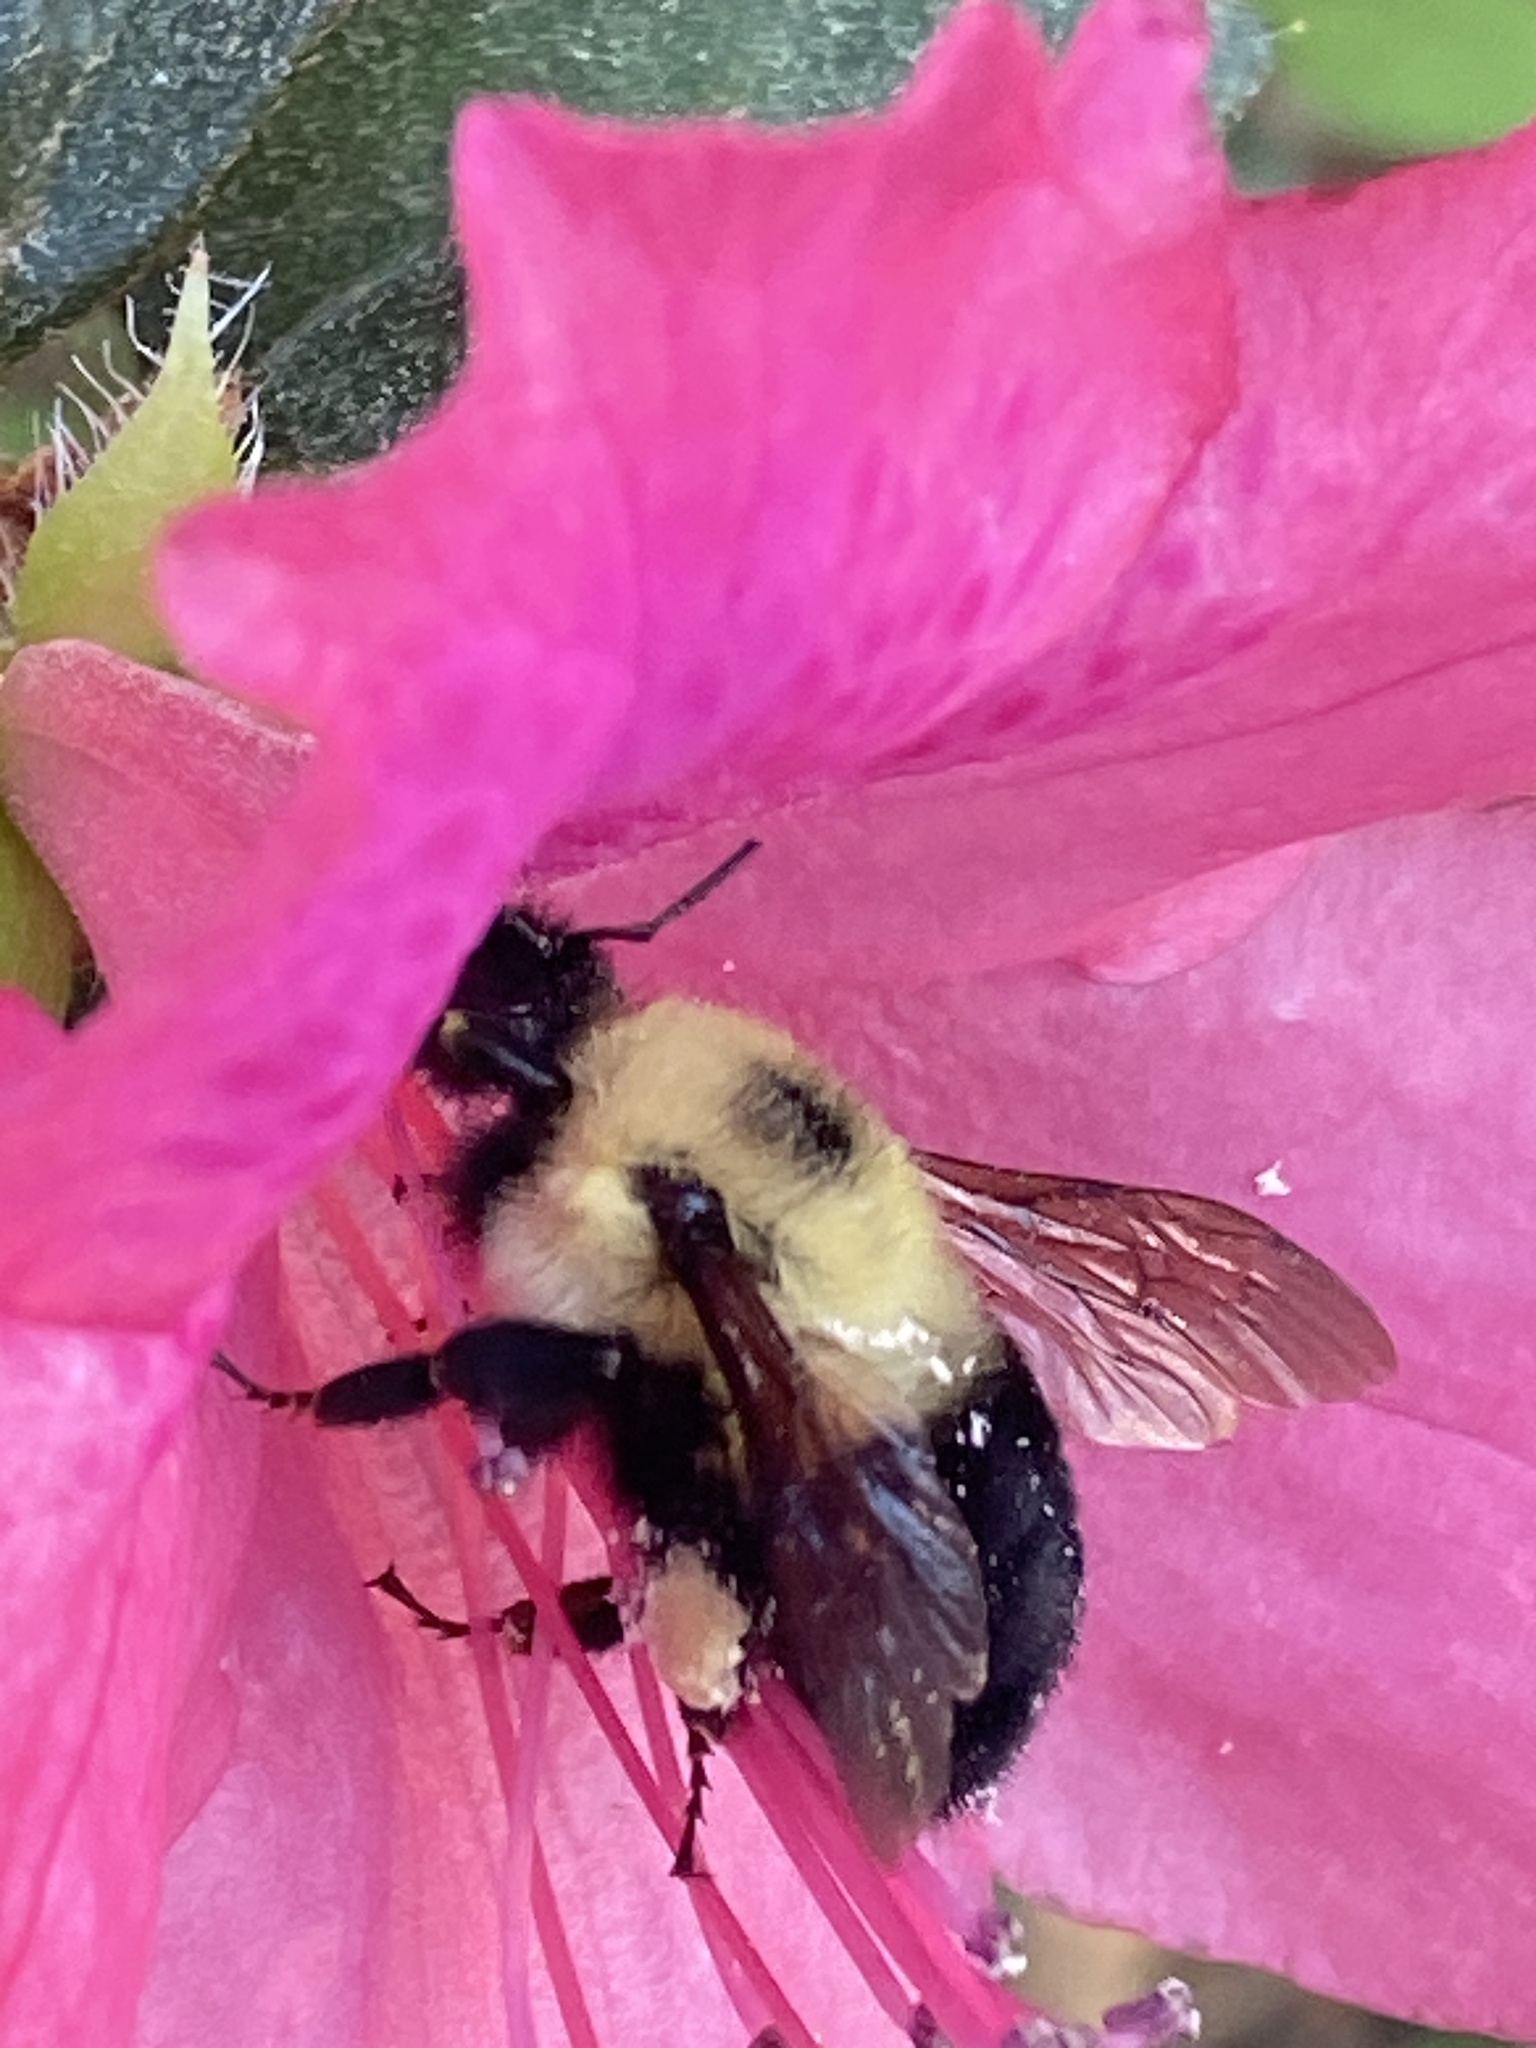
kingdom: Animalia
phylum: Arthropoda
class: Insecta
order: Hymenoptera
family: Apidae
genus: Bombus
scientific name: Bombus bimaculatus
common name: Two-spotted bumble bee
